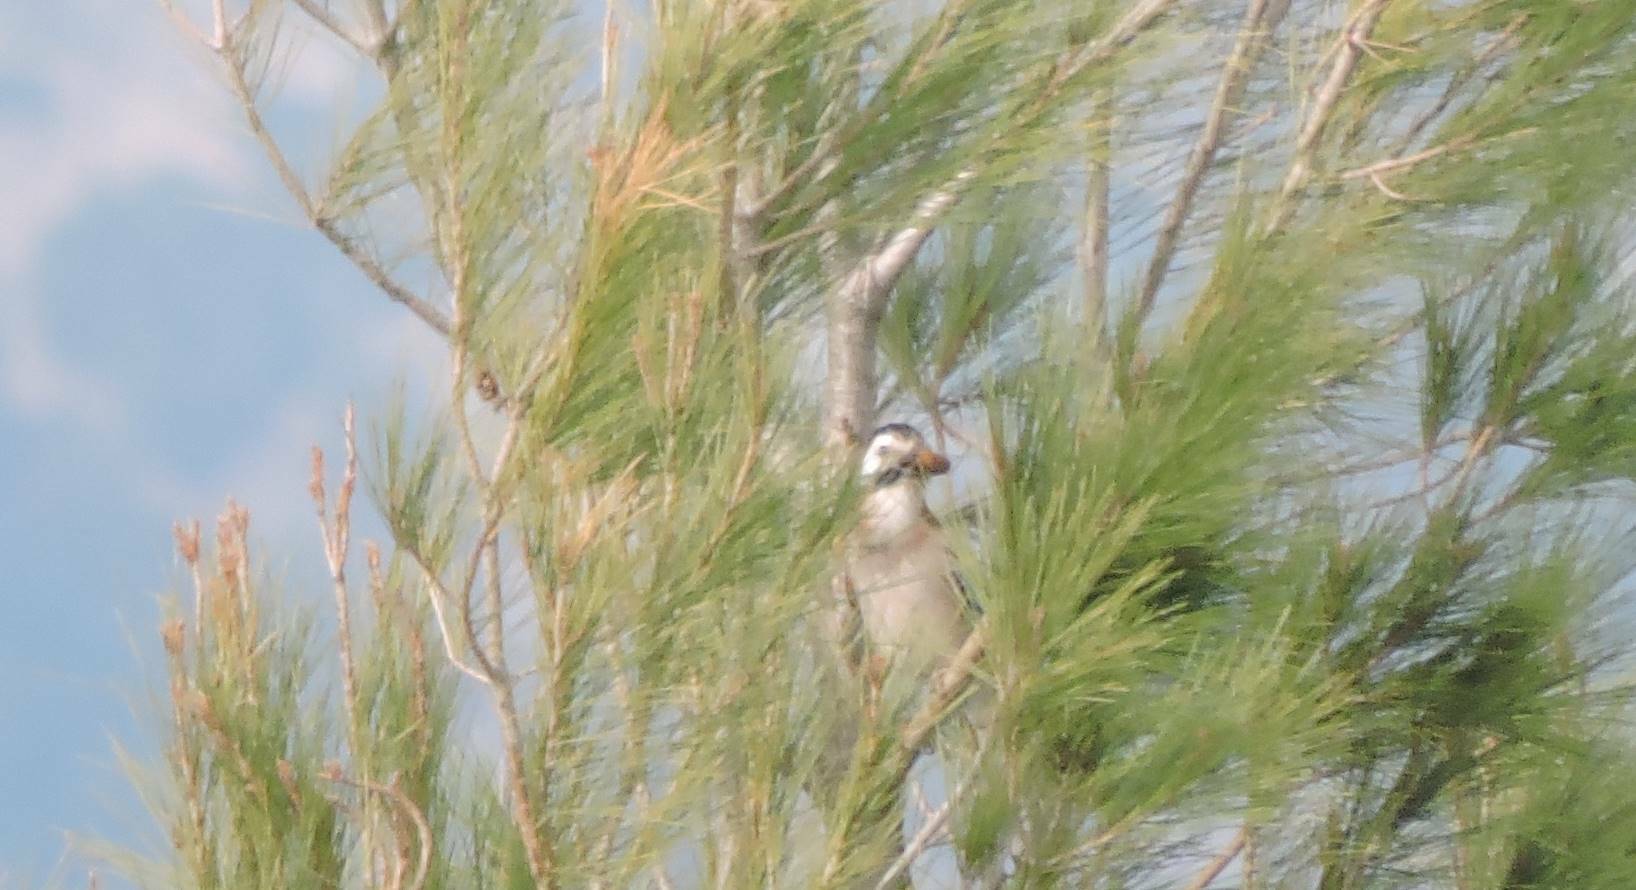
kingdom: Animalia
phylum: Chordata
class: Aves
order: Passeriformes
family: Corvidae
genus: Garrulus
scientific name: Garrulus glandarius
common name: Eurasian jay
